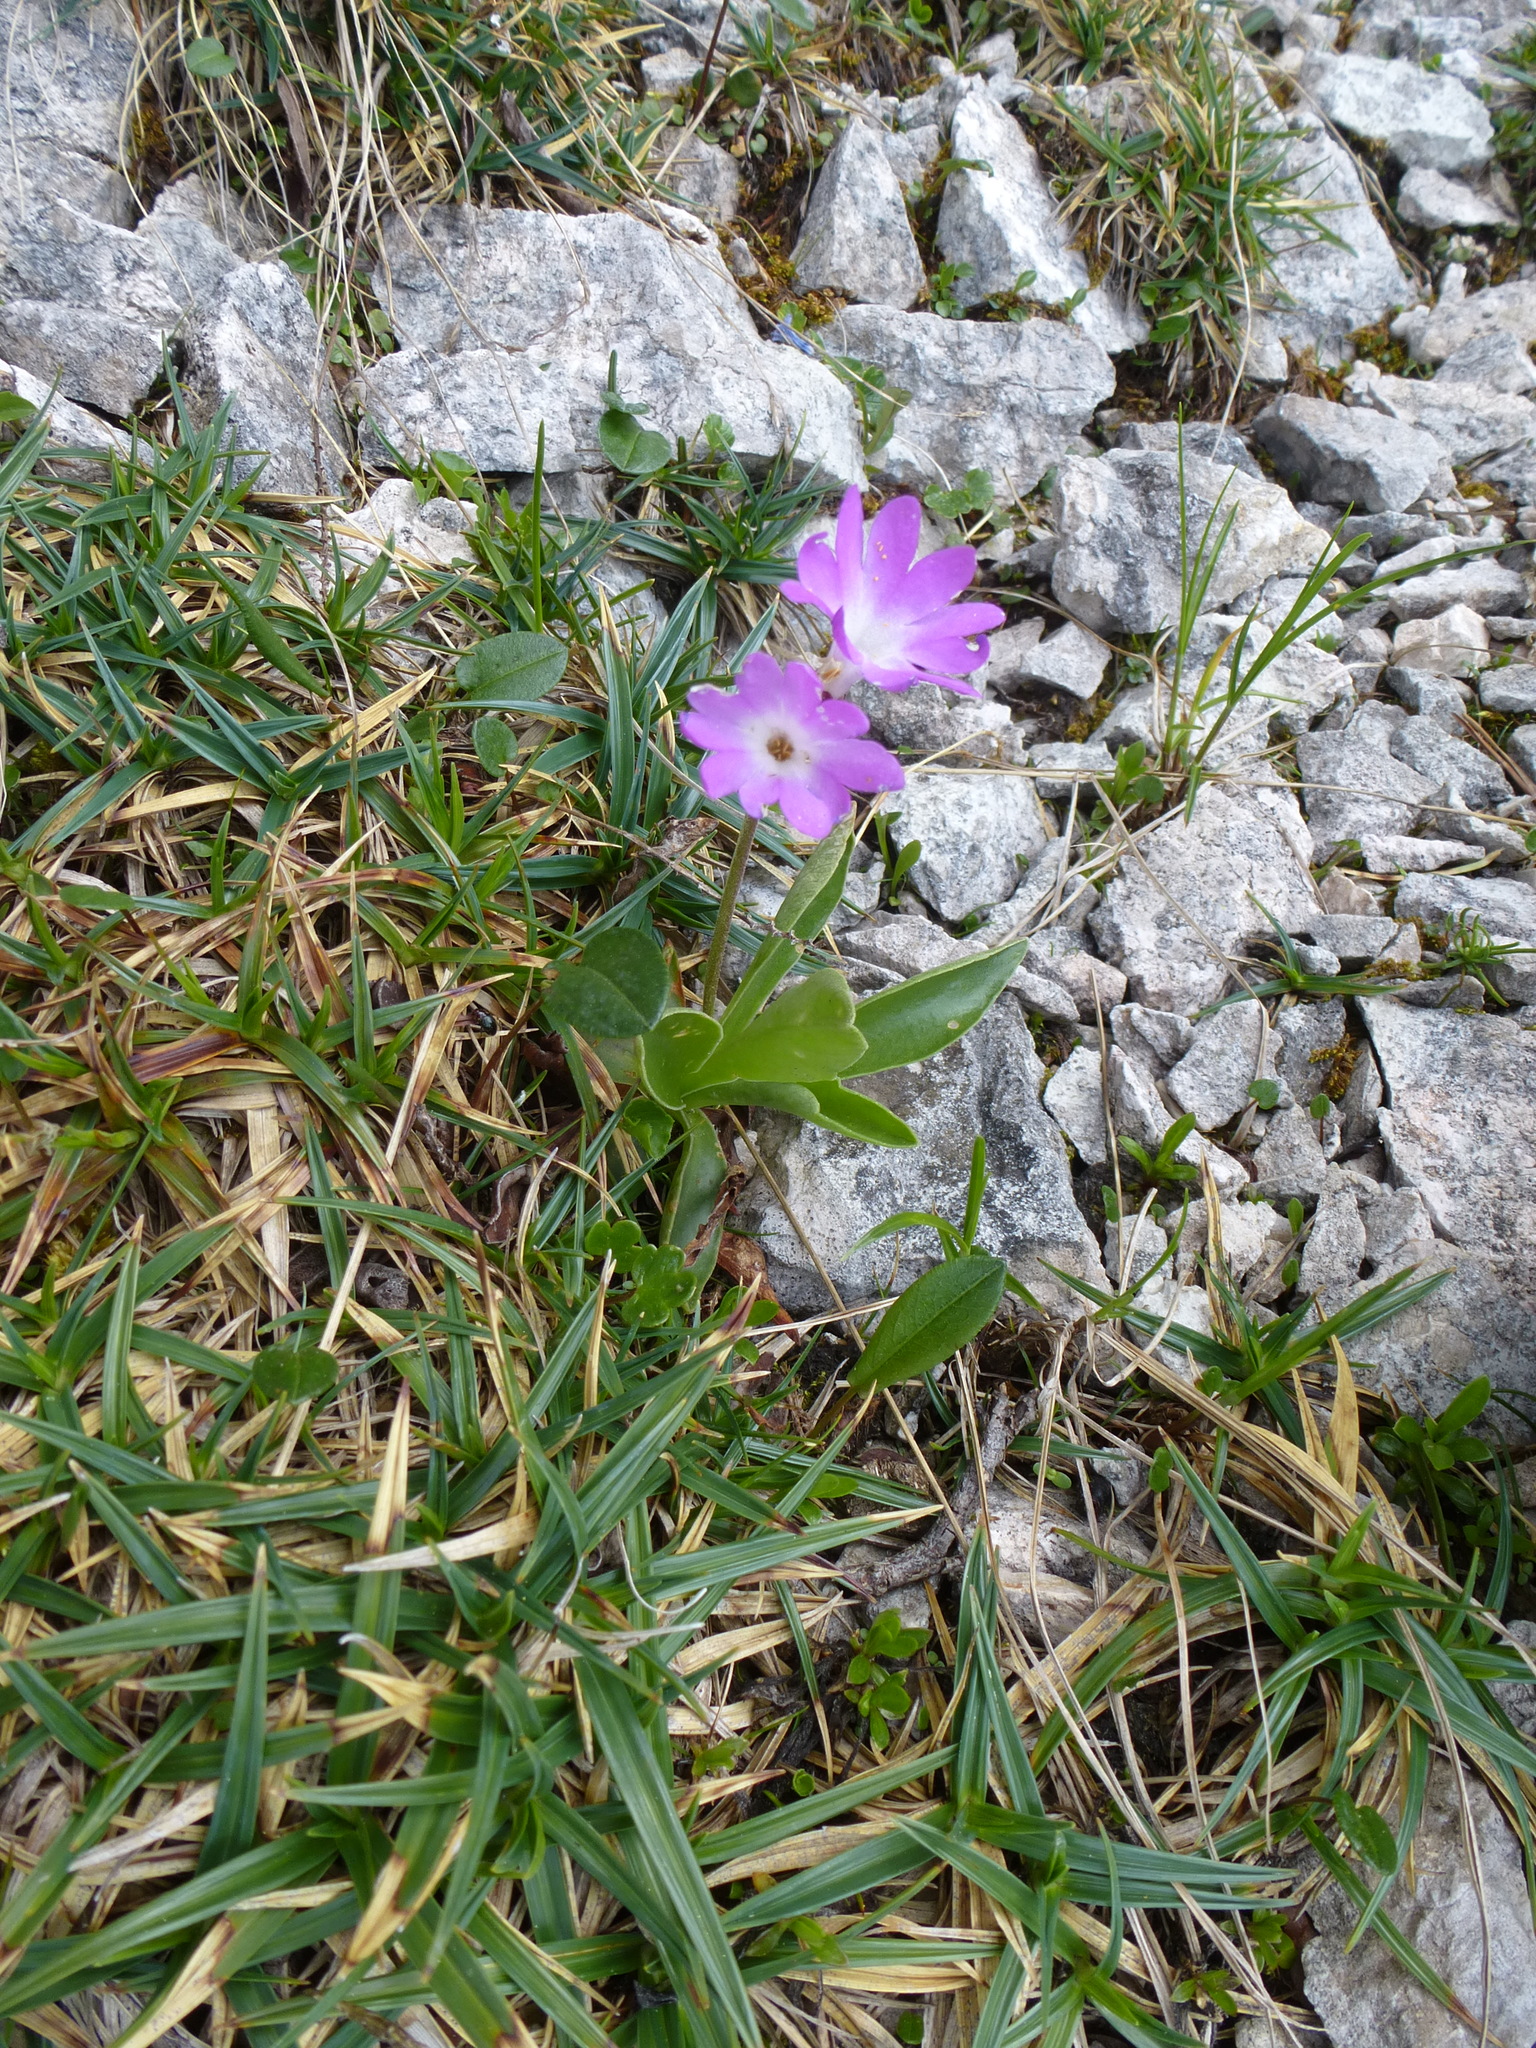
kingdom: Plantae
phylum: Tracheophyta
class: Magnoliopsida
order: Ericales
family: Primulaceae
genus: Primula
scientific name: Primula clusiana
